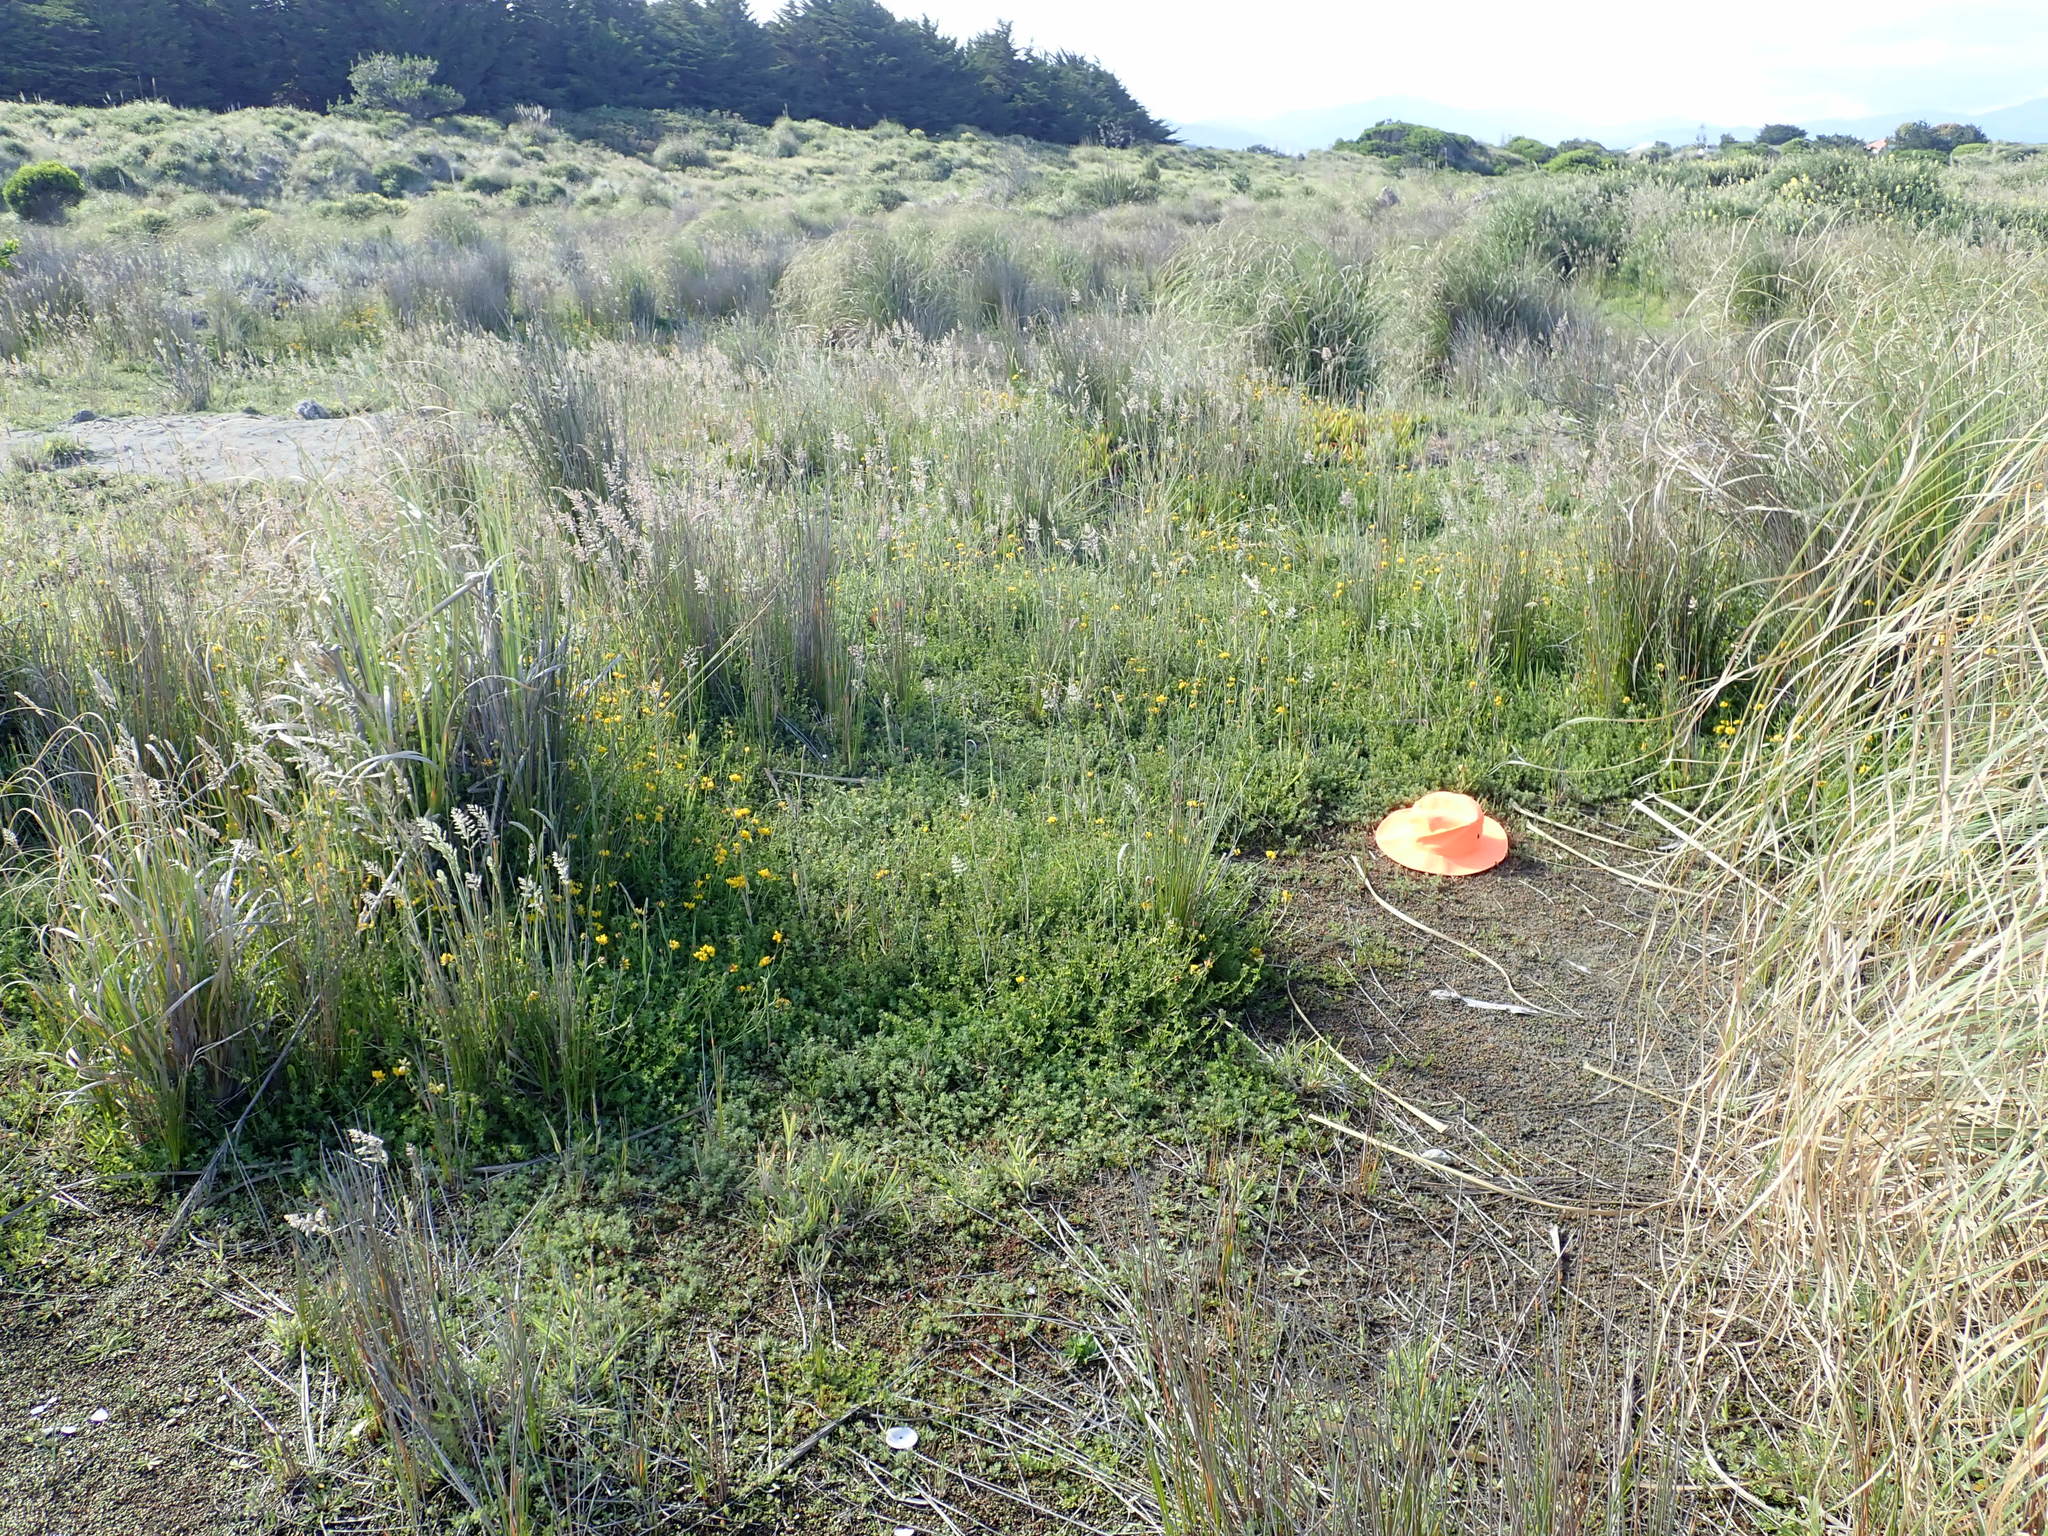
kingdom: Plantae
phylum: Tracheophyta
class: Liliopsida
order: Poales
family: Juncaceae
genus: Juncus
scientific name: Juncus bufonius
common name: Toad rush
